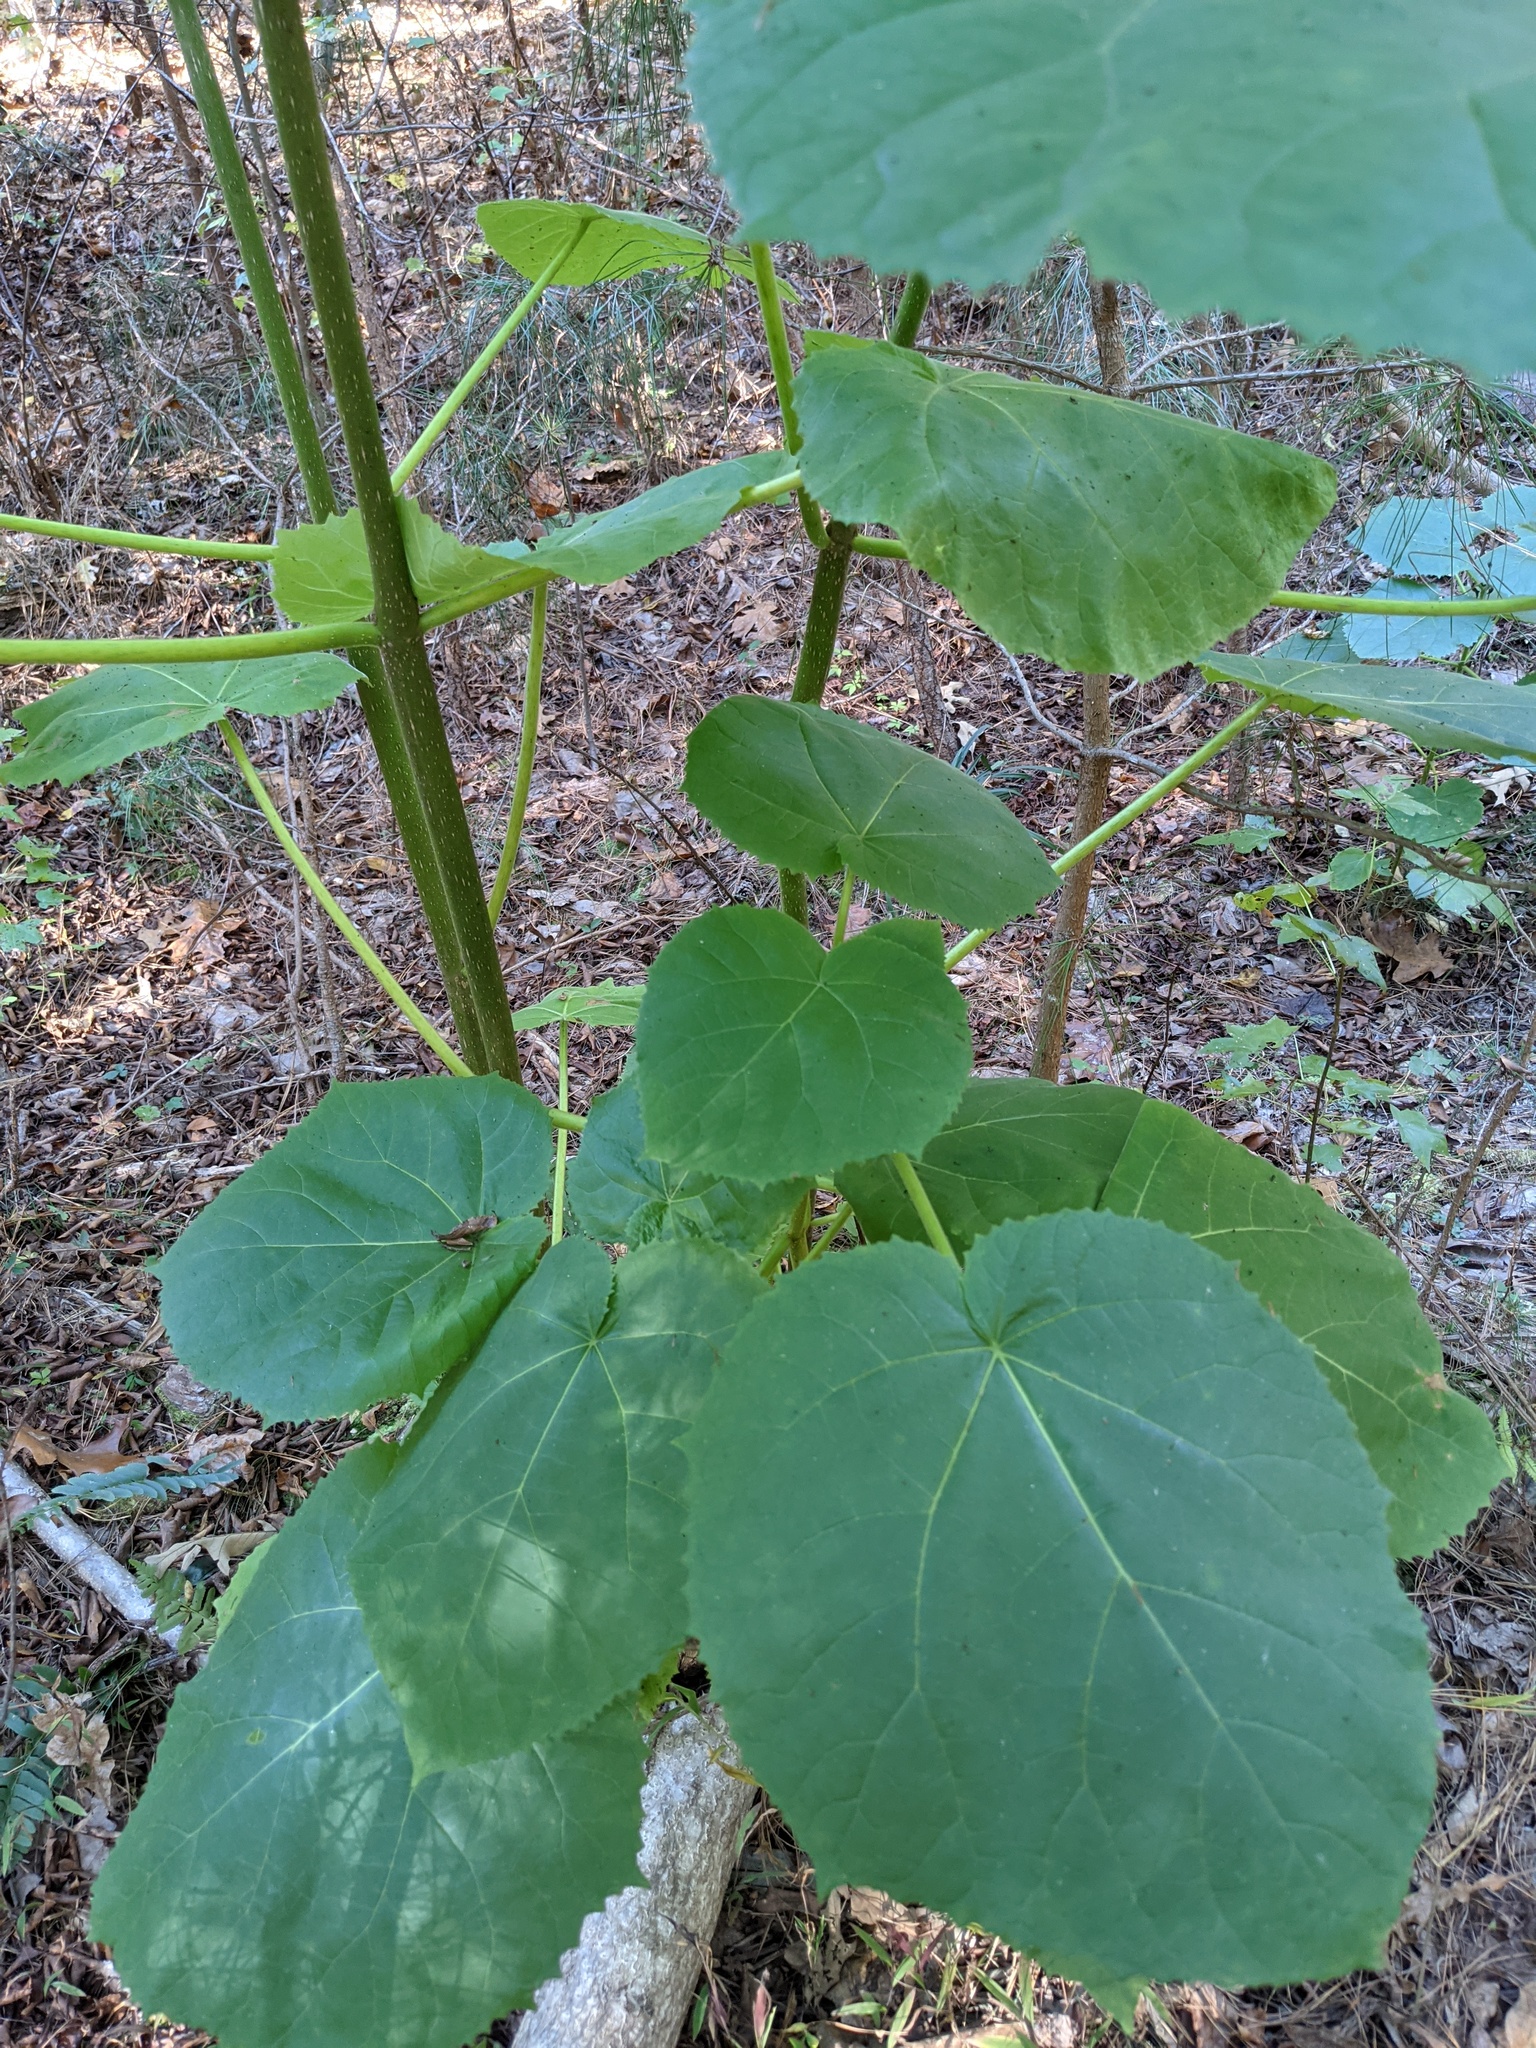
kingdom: Plantae
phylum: Tracheophyta
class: Magnoliopsida
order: Lamiales
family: Paulowniaceae
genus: Paulownia
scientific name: Paulownia tomentosa
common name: Foxglove-tree
